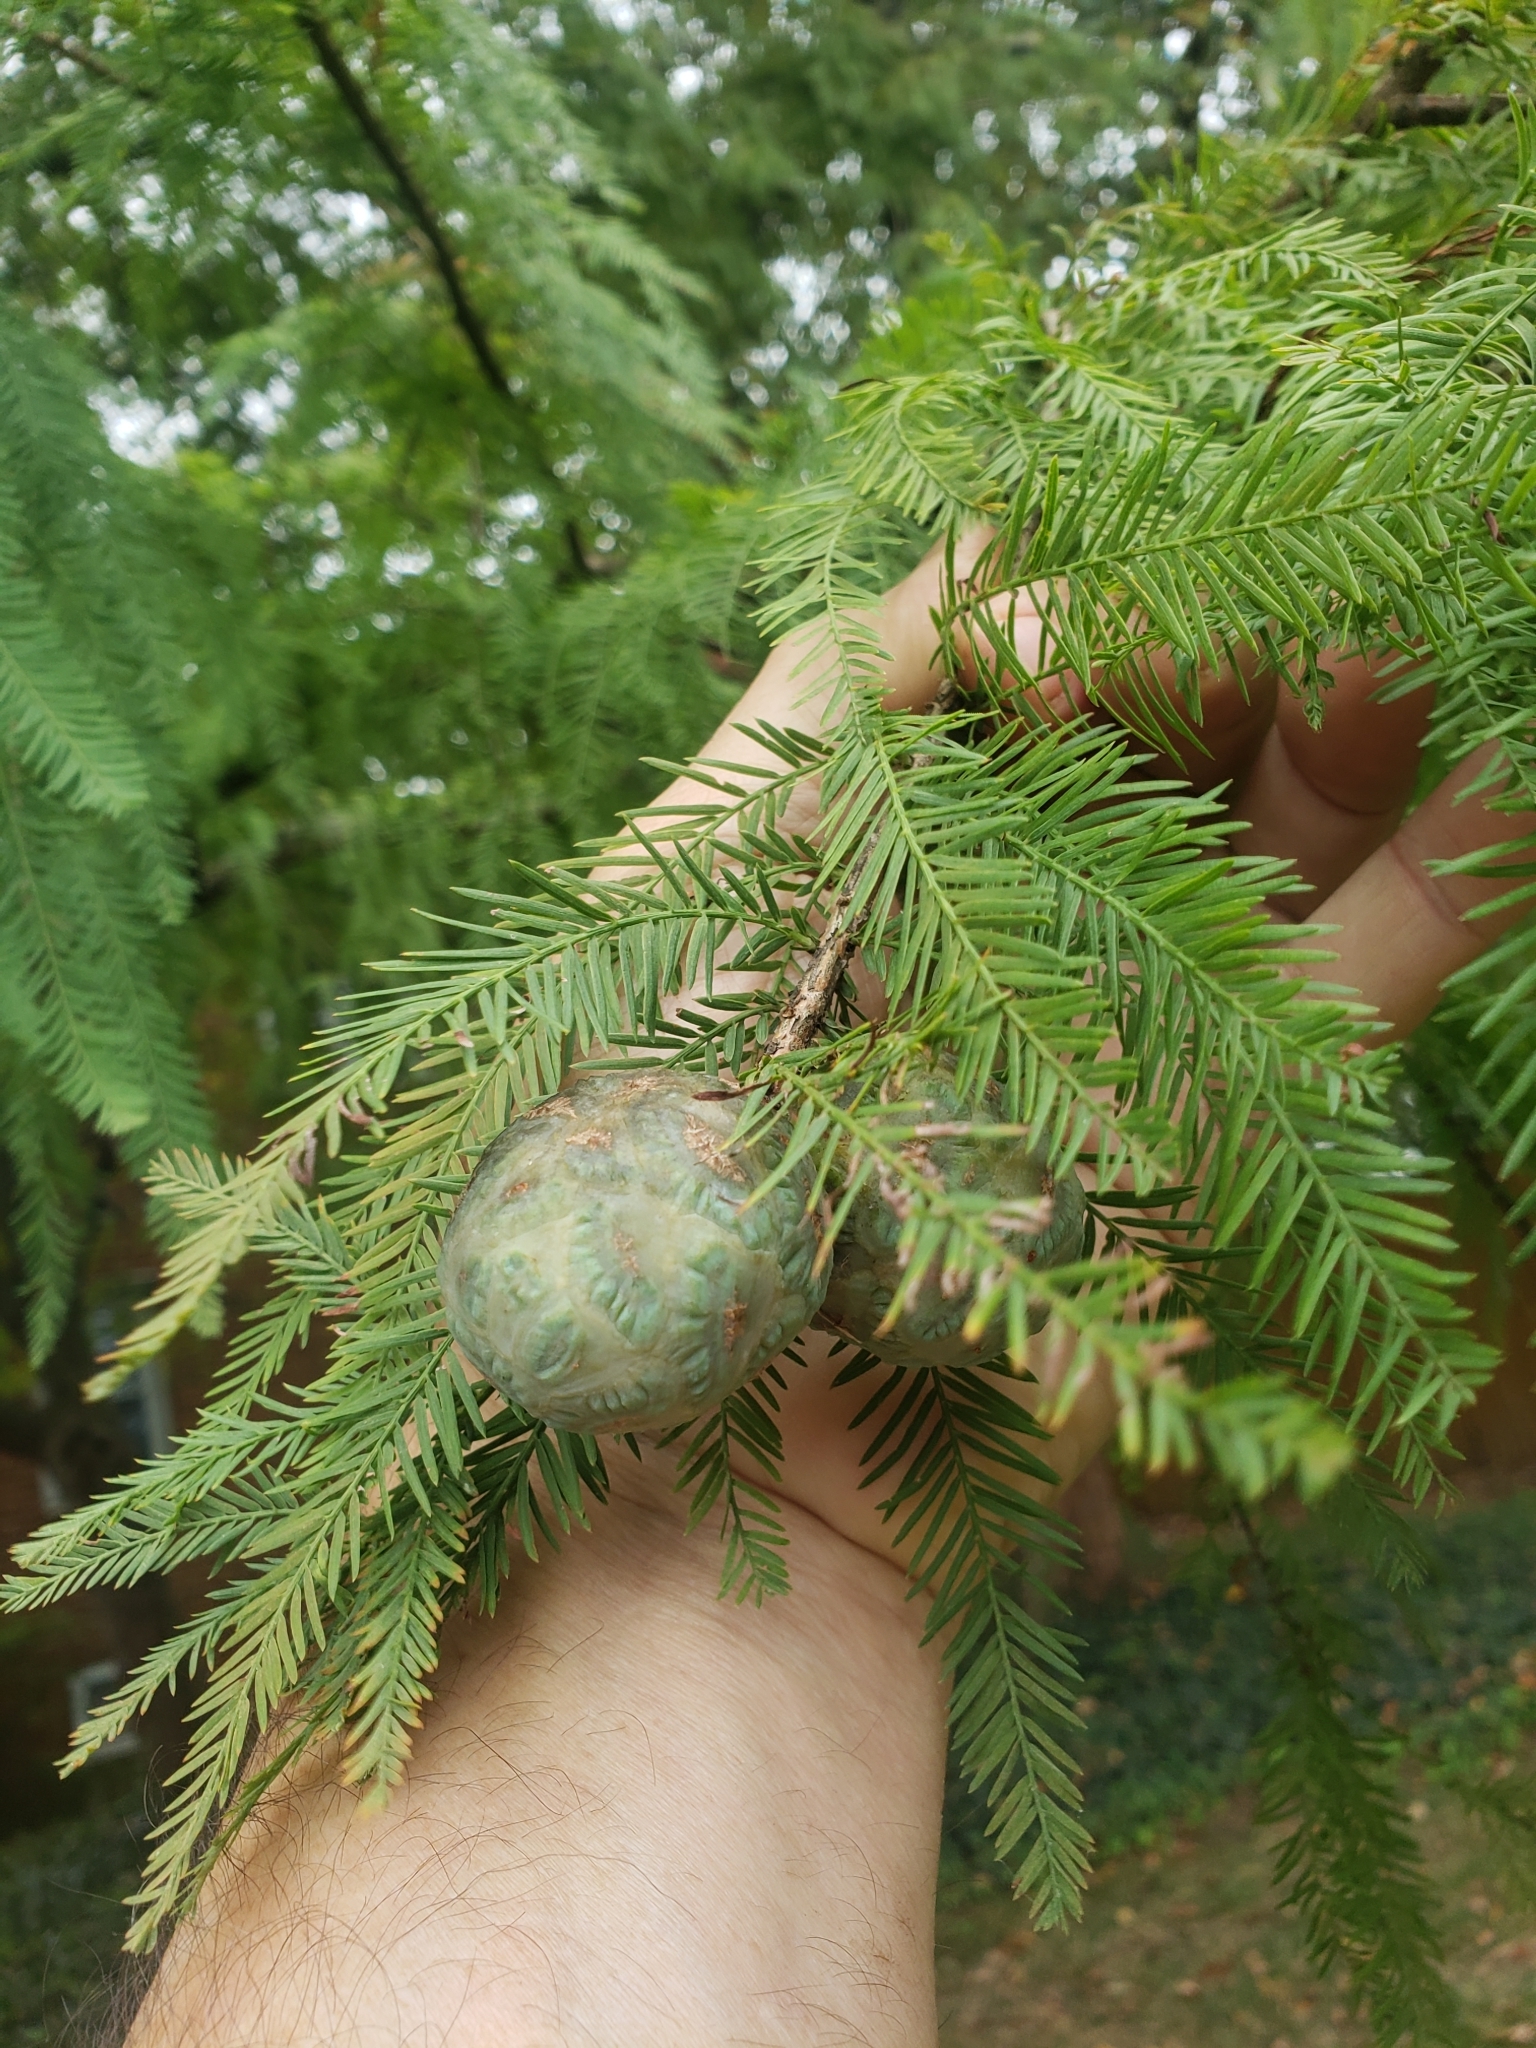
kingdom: Plantae
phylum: Tracheophyta
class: Pinopsida
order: Pinales
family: Cupressaceae
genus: Taxodium
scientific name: Taxodium distichum
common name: Bald cypress
